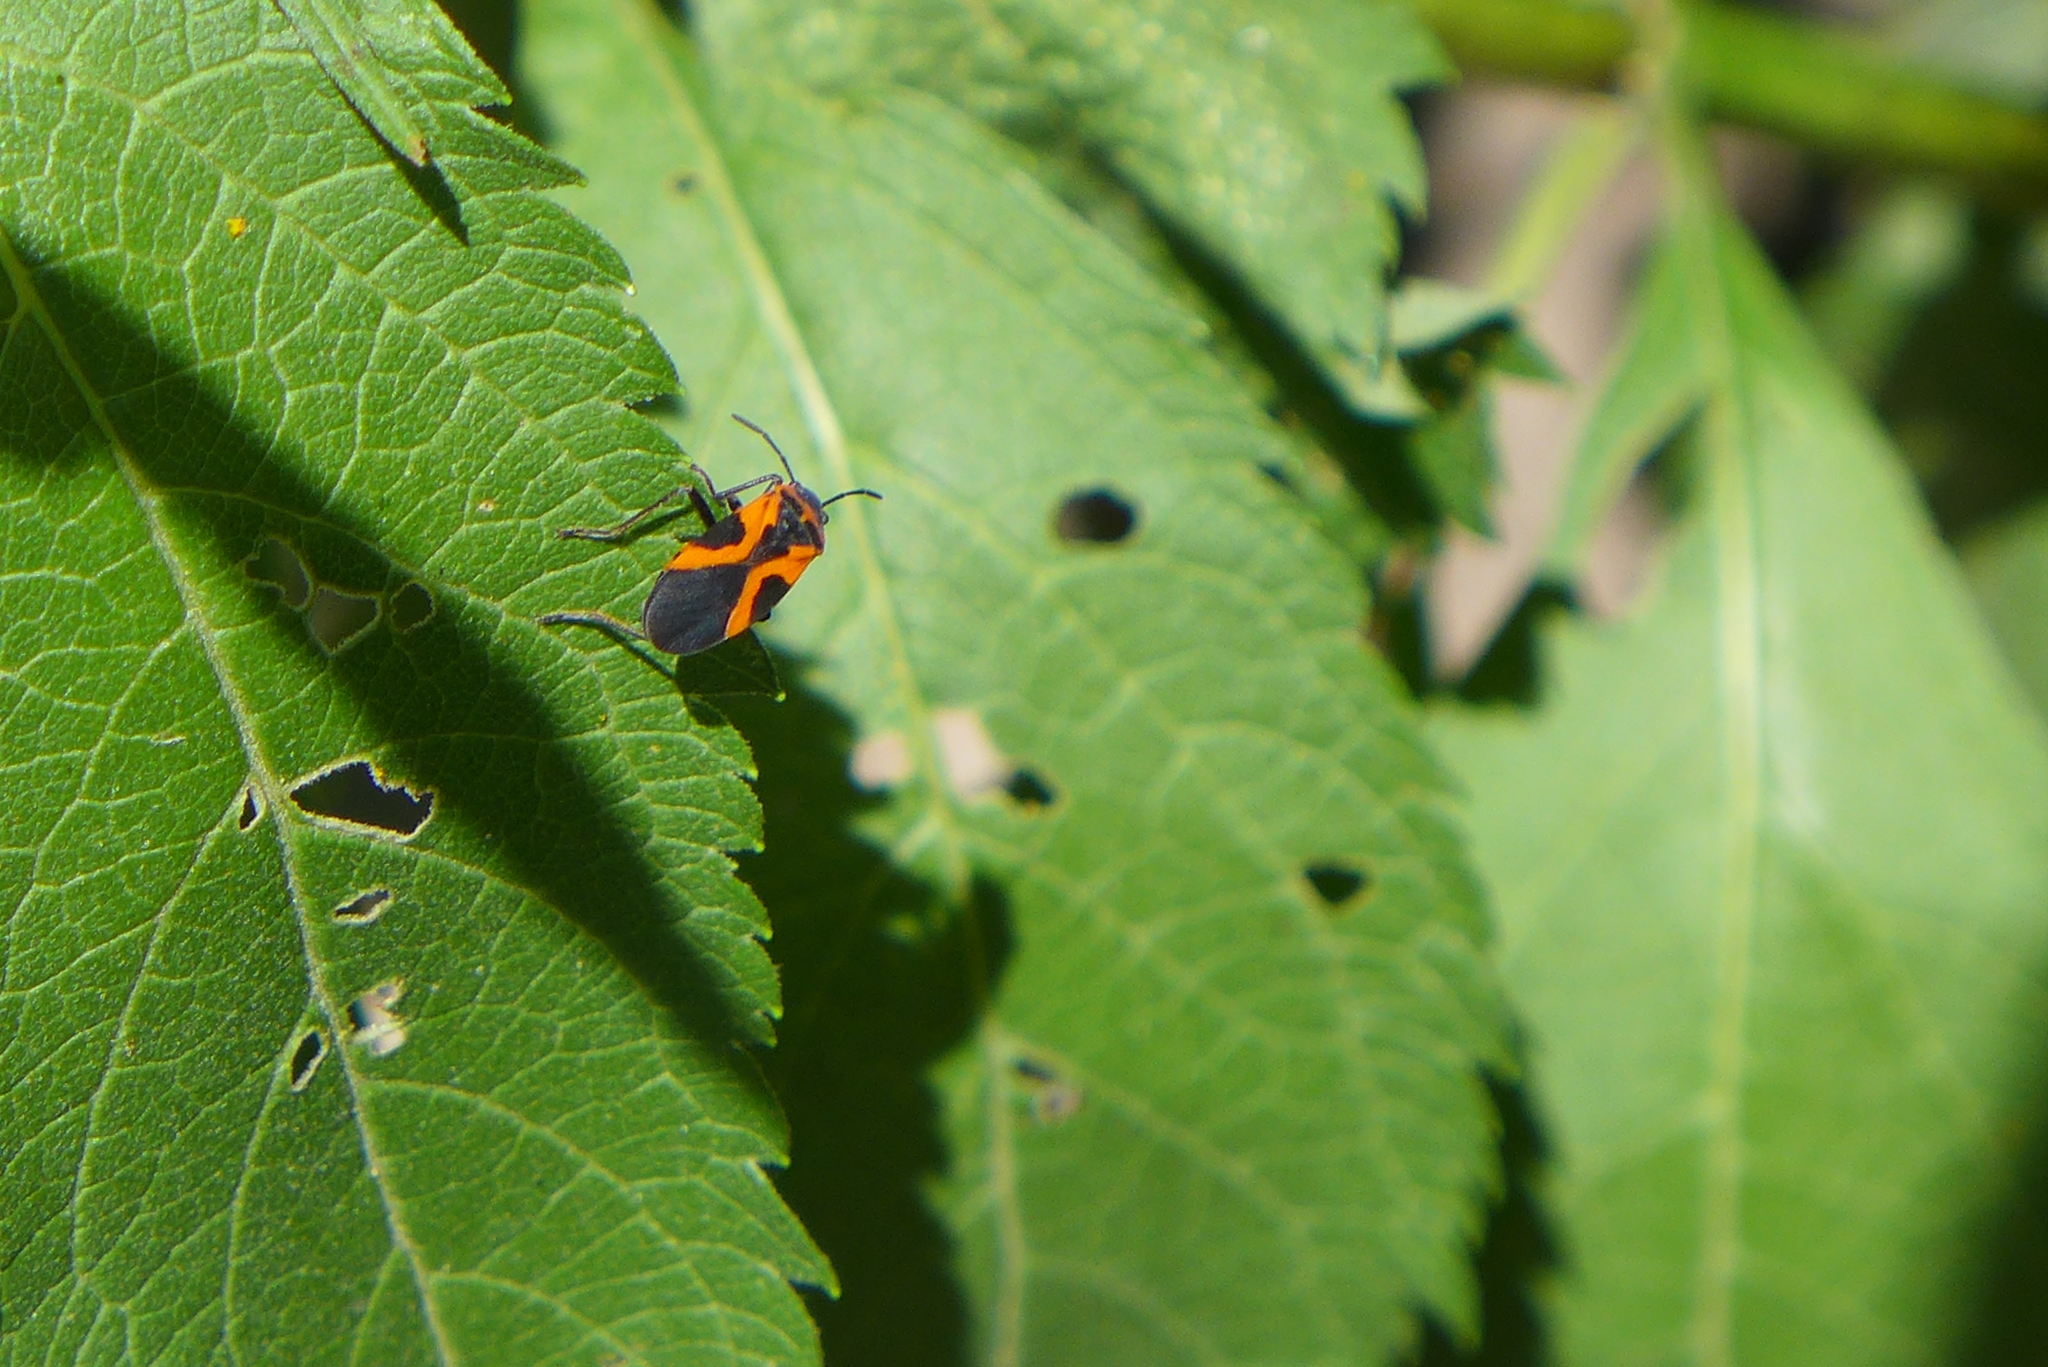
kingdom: Animalia
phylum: Arthropoda
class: Insecta
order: Hemiptera
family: Lygaeidae
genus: Lygaeus
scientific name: Lygaeus turcicus
